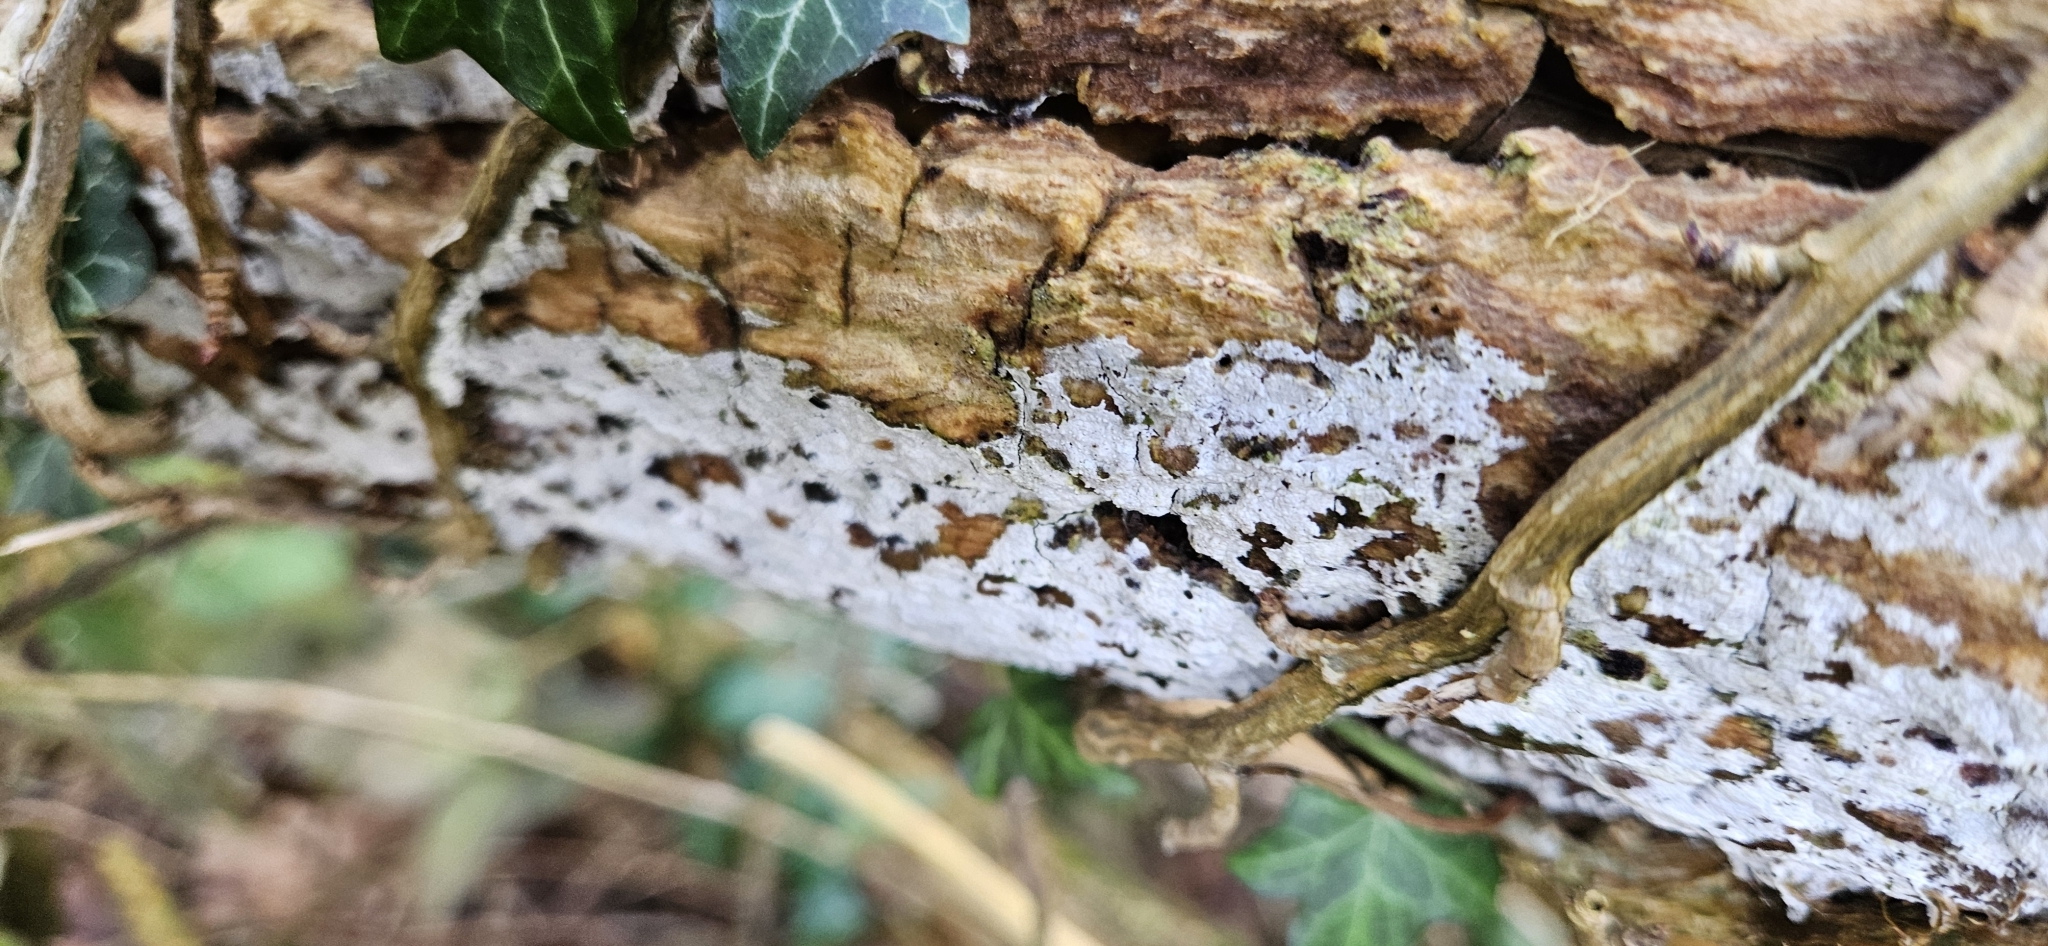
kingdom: Fungi
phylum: Basidiomycota
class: Agaricomycetes
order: Corticiales
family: Corticiaceae
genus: Lyomyces
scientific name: Lyomyces sambuci
